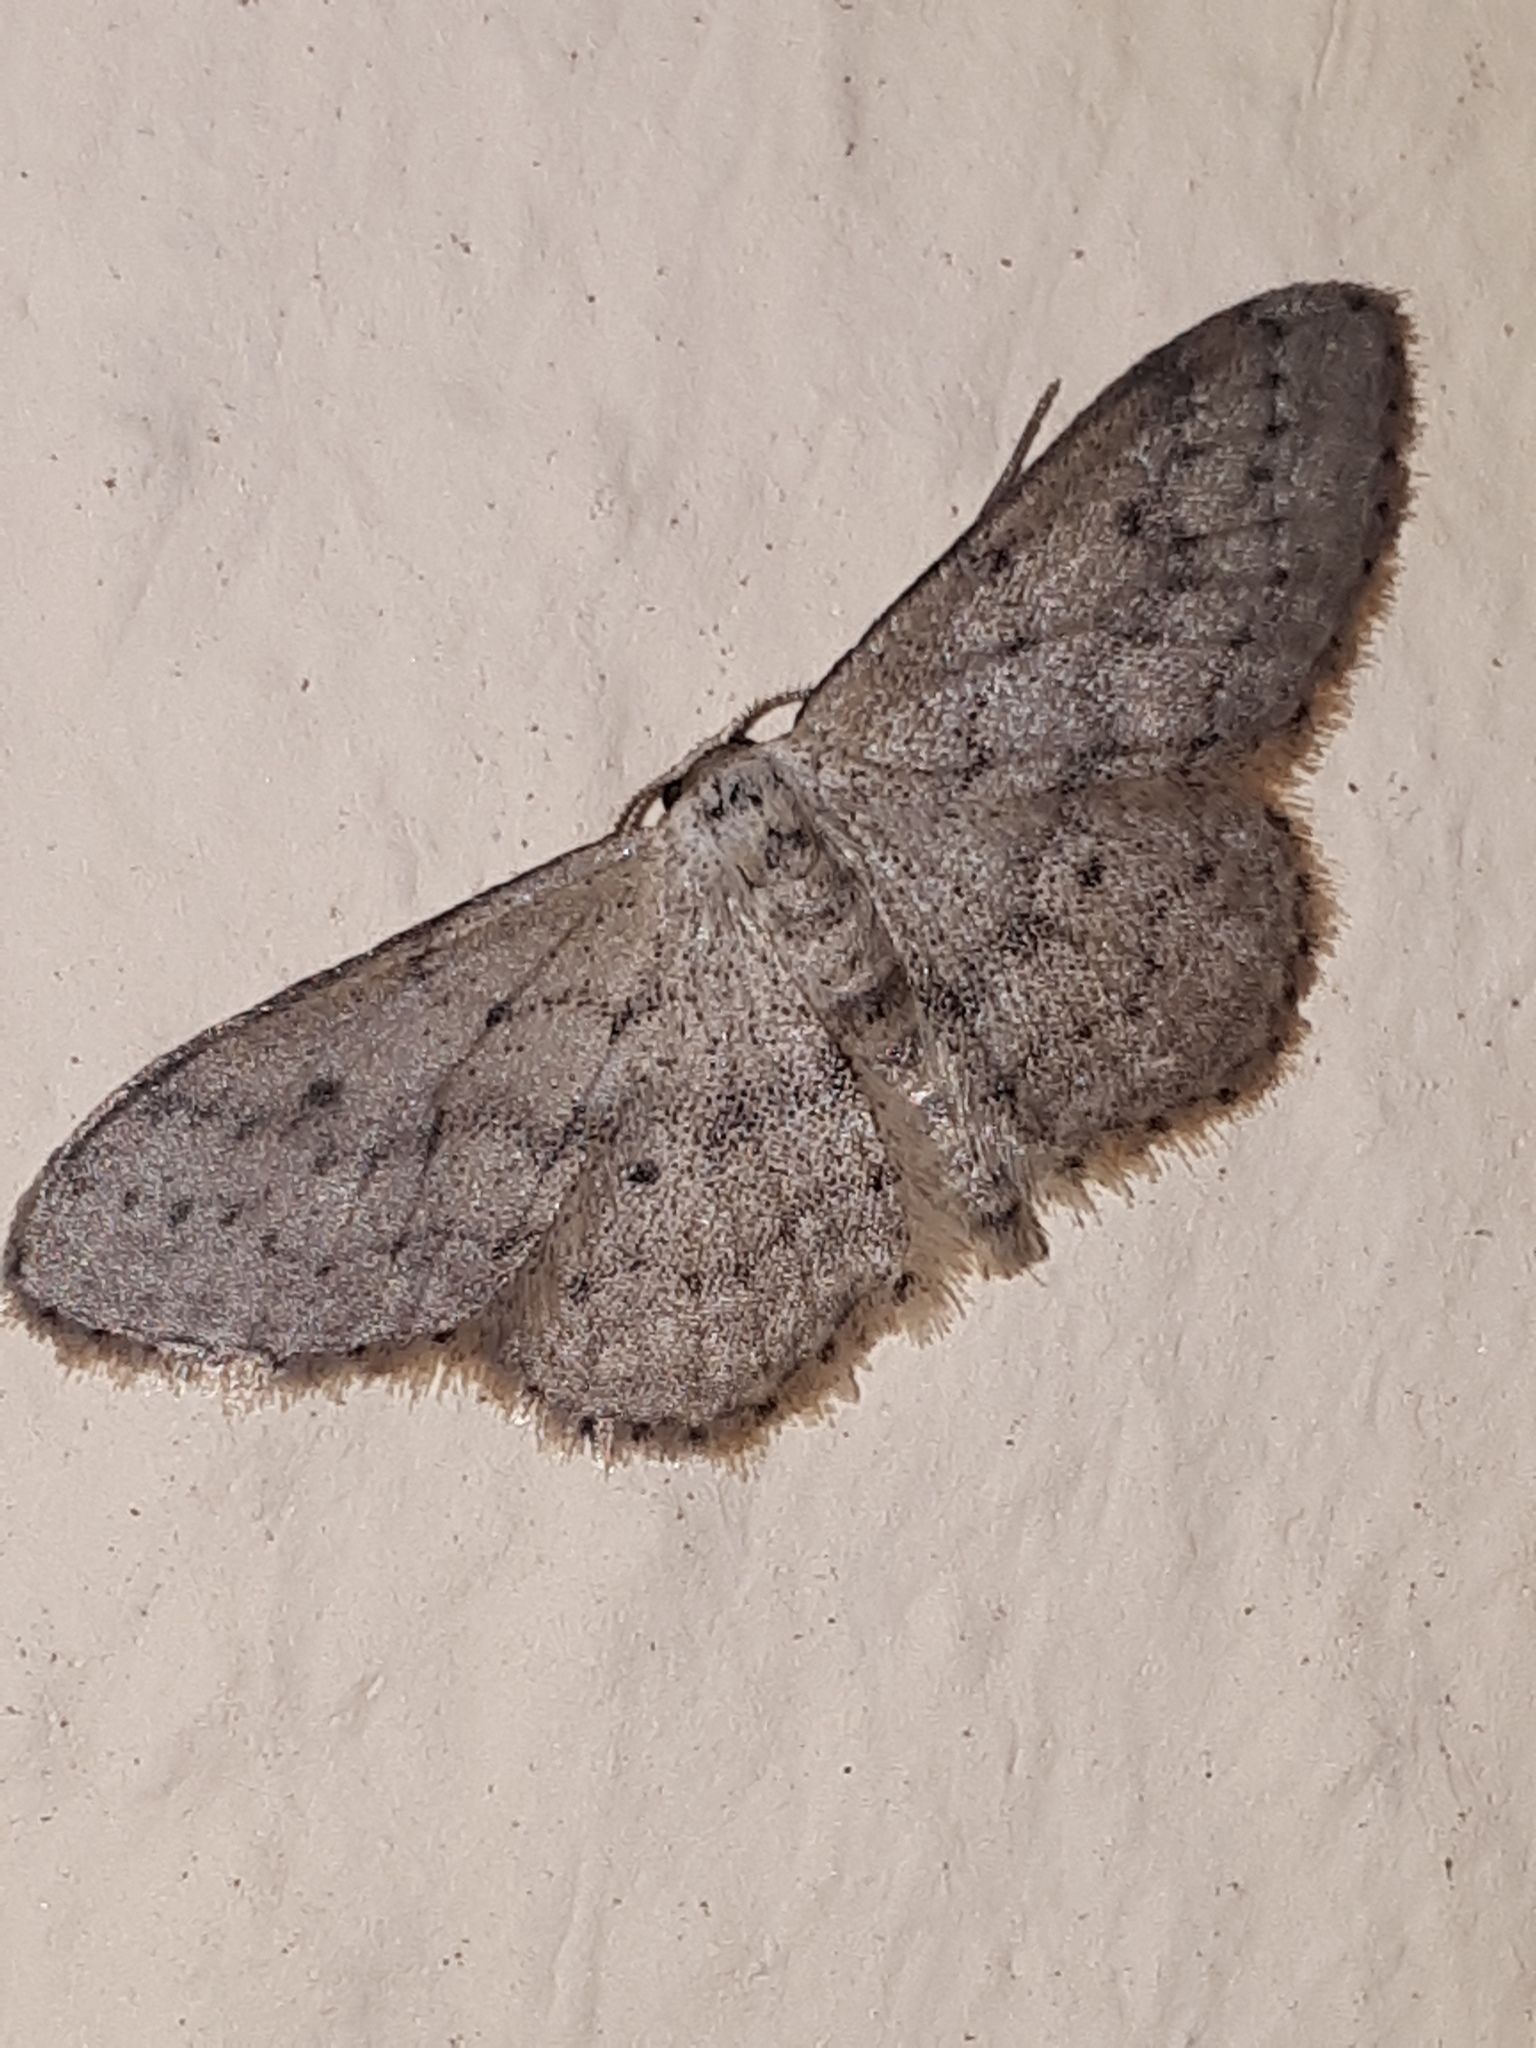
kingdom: Animalia
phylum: Arthropoda
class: Insecta
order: Lepidoptera
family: Geometridae
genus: Idaea
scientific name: Idaea seriata
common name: Small dusty wave
